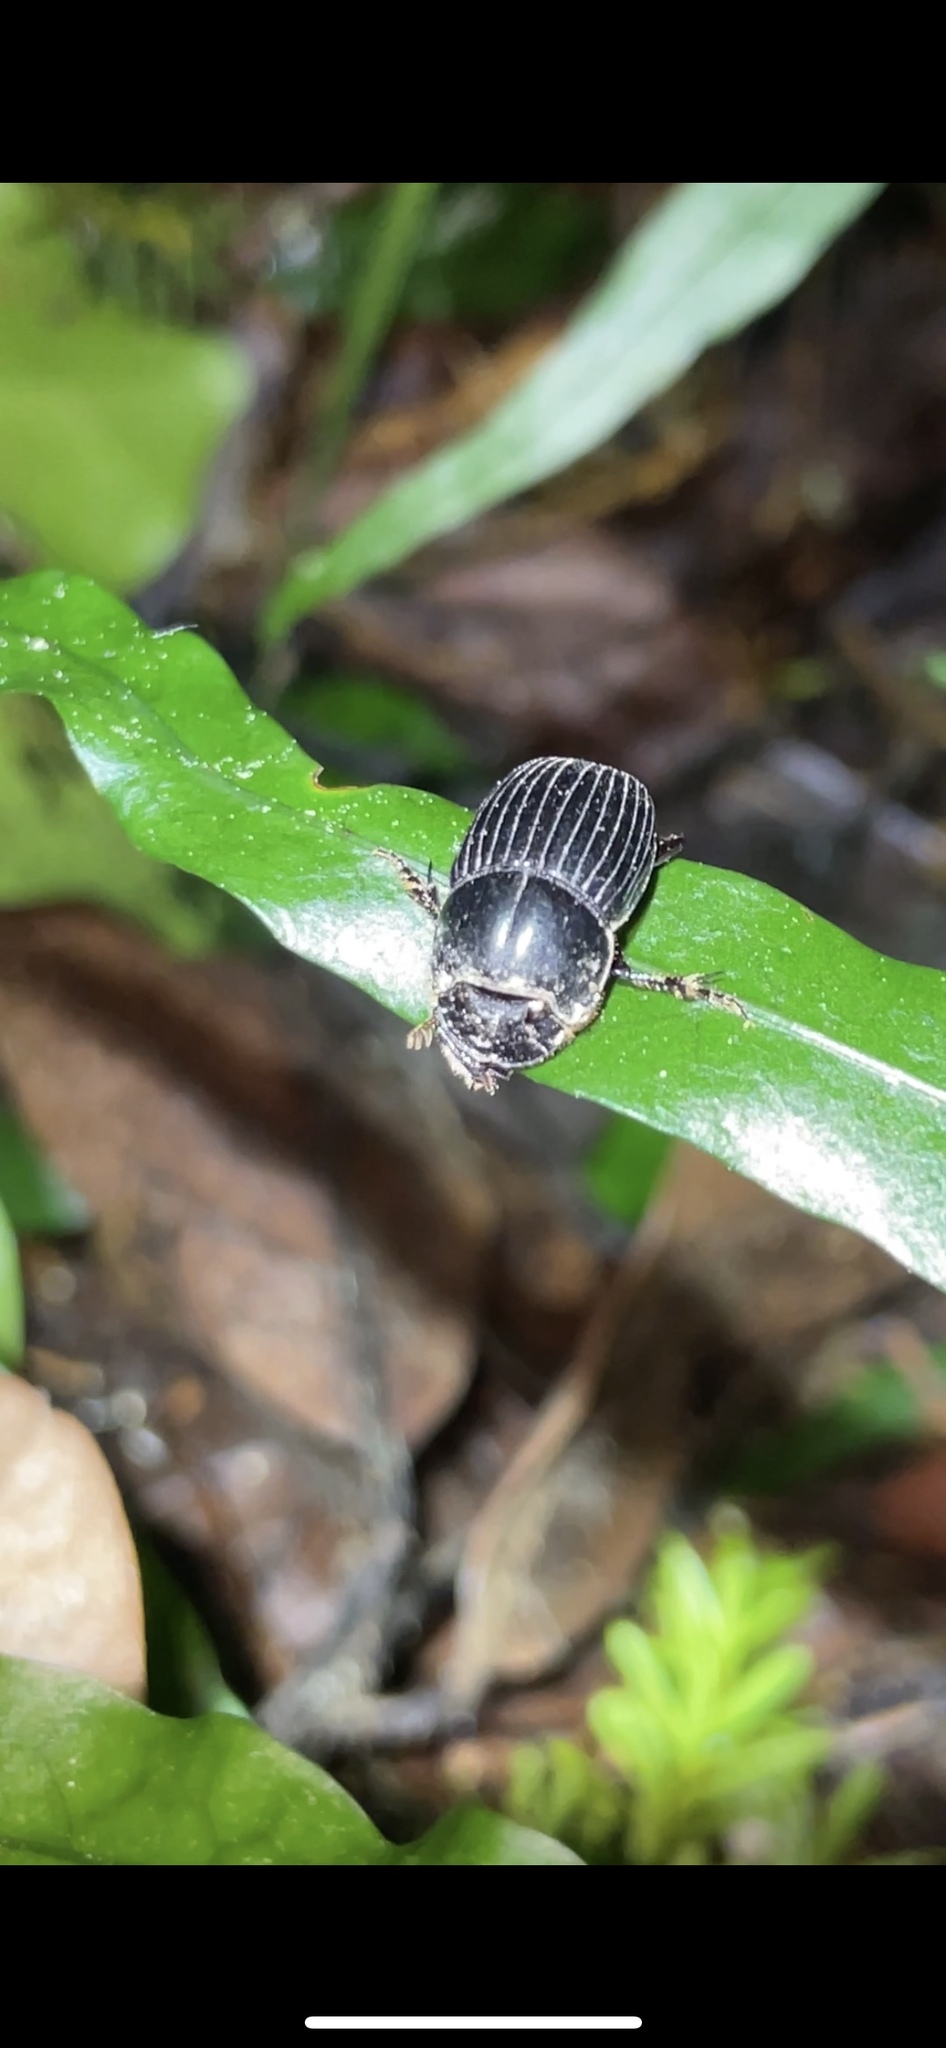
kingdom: Animalia
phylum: Arthropoda
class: Insecta
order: Coleoptera
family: Scarabaeidae
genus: Copris
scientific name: Copris incertus
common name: Uncertain dung beetle
